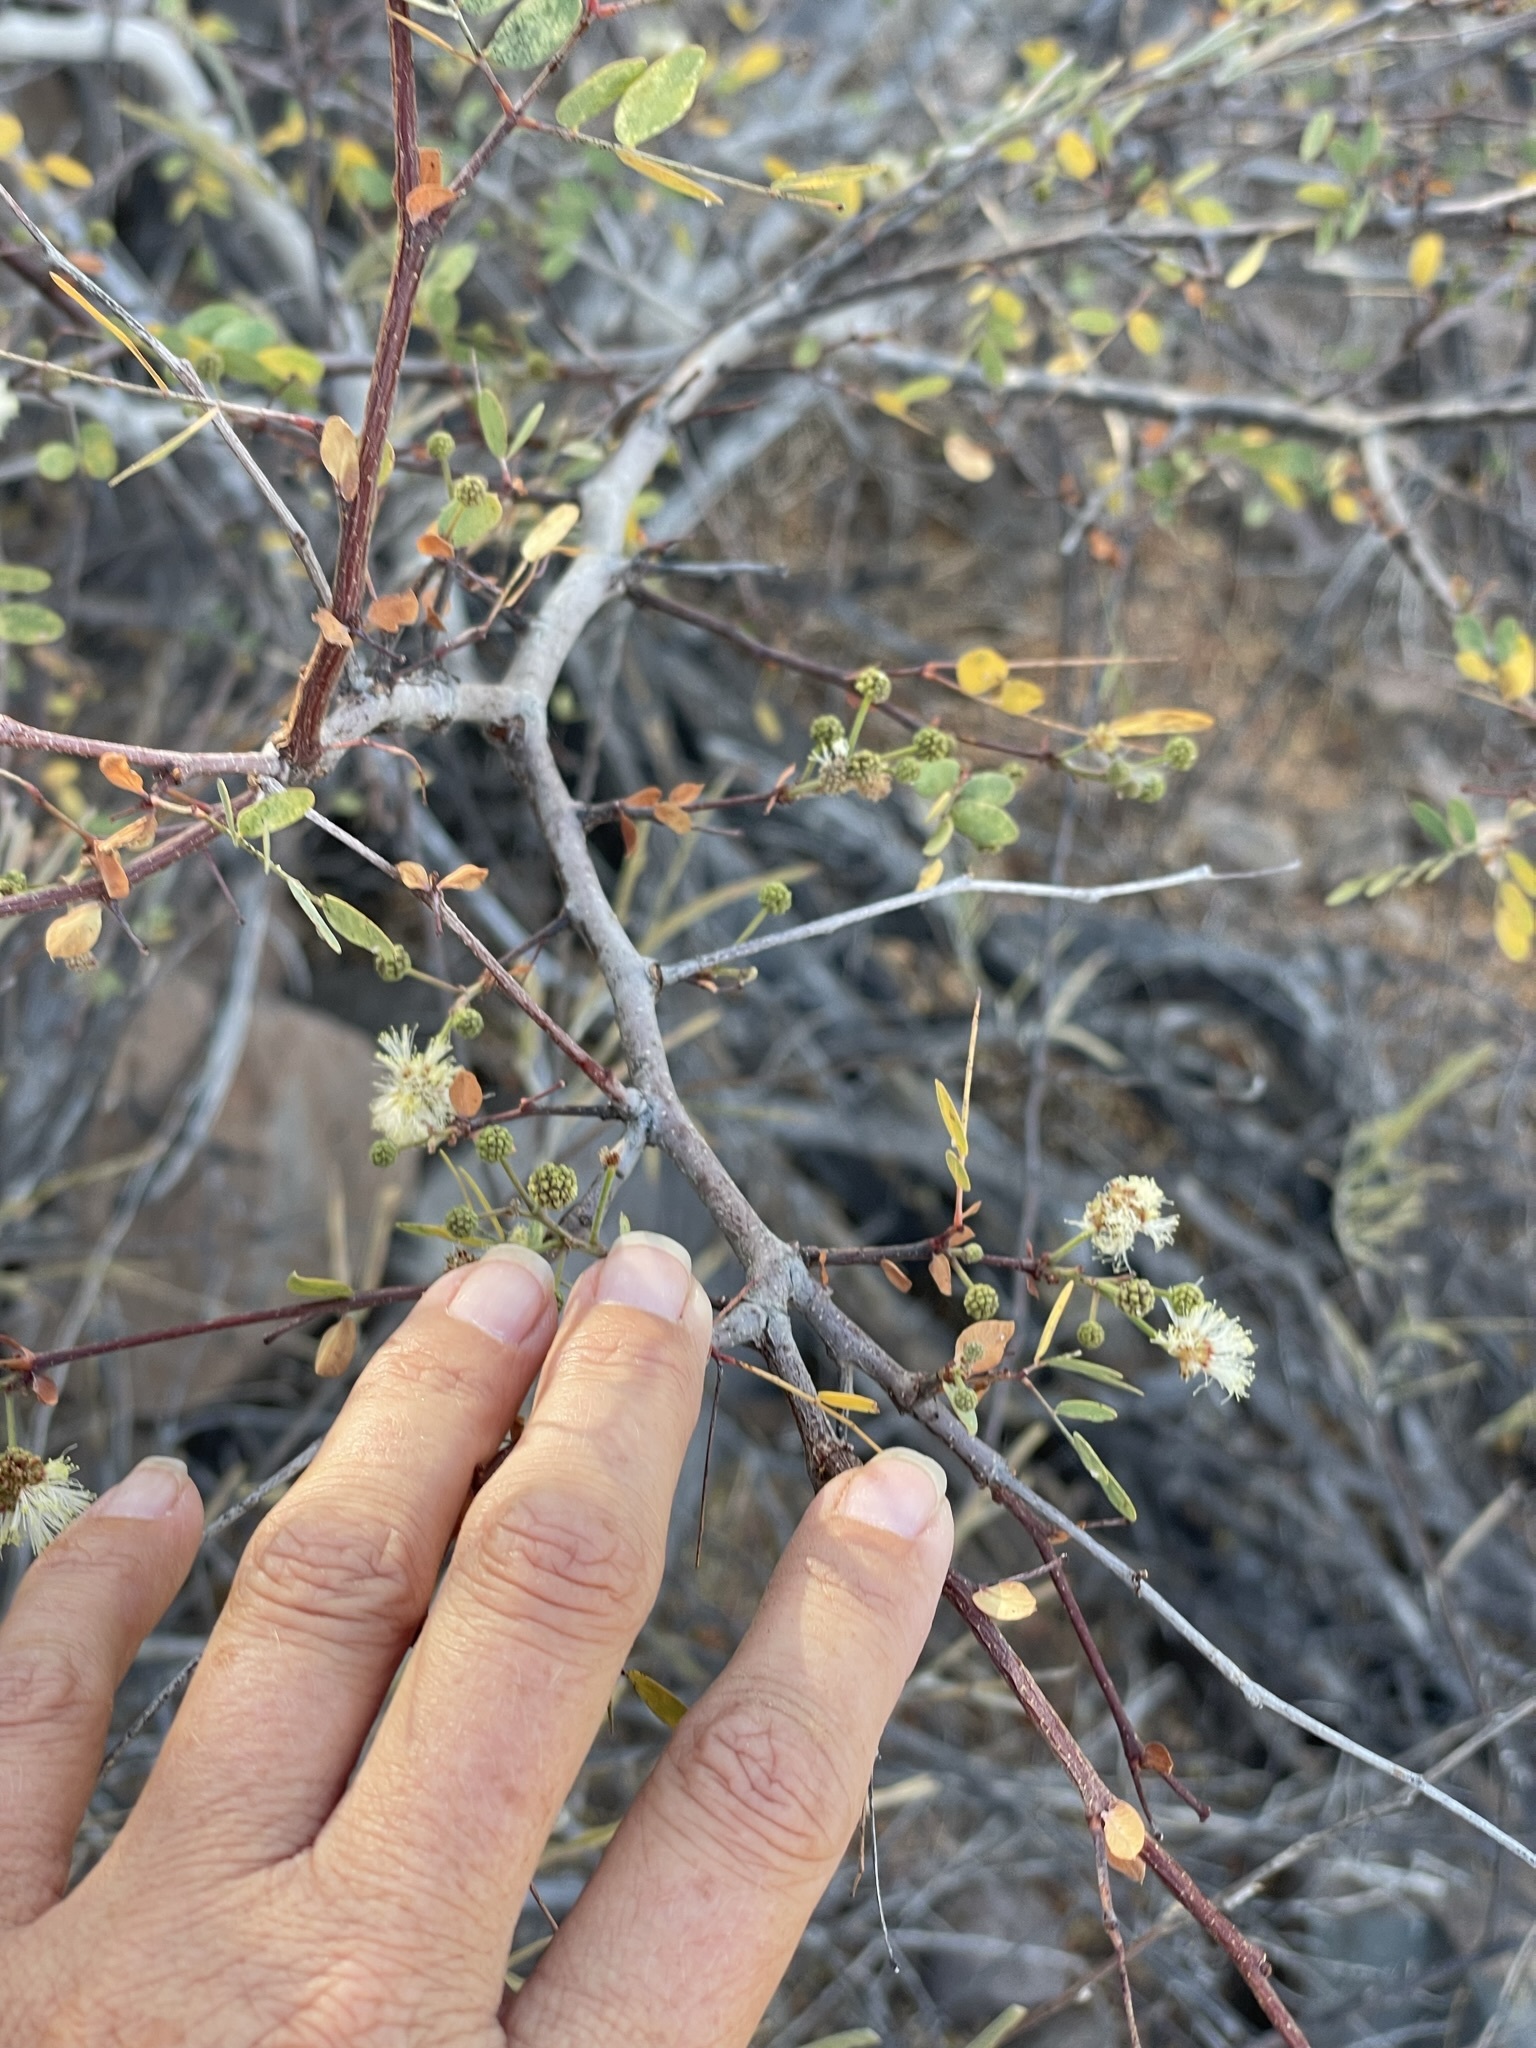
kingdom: Plantae
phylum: Tracheophyta
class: Magnoliopsida
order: Fabales
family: Fabaceae
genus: Lysiloma
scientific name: Lysiloma candidum
